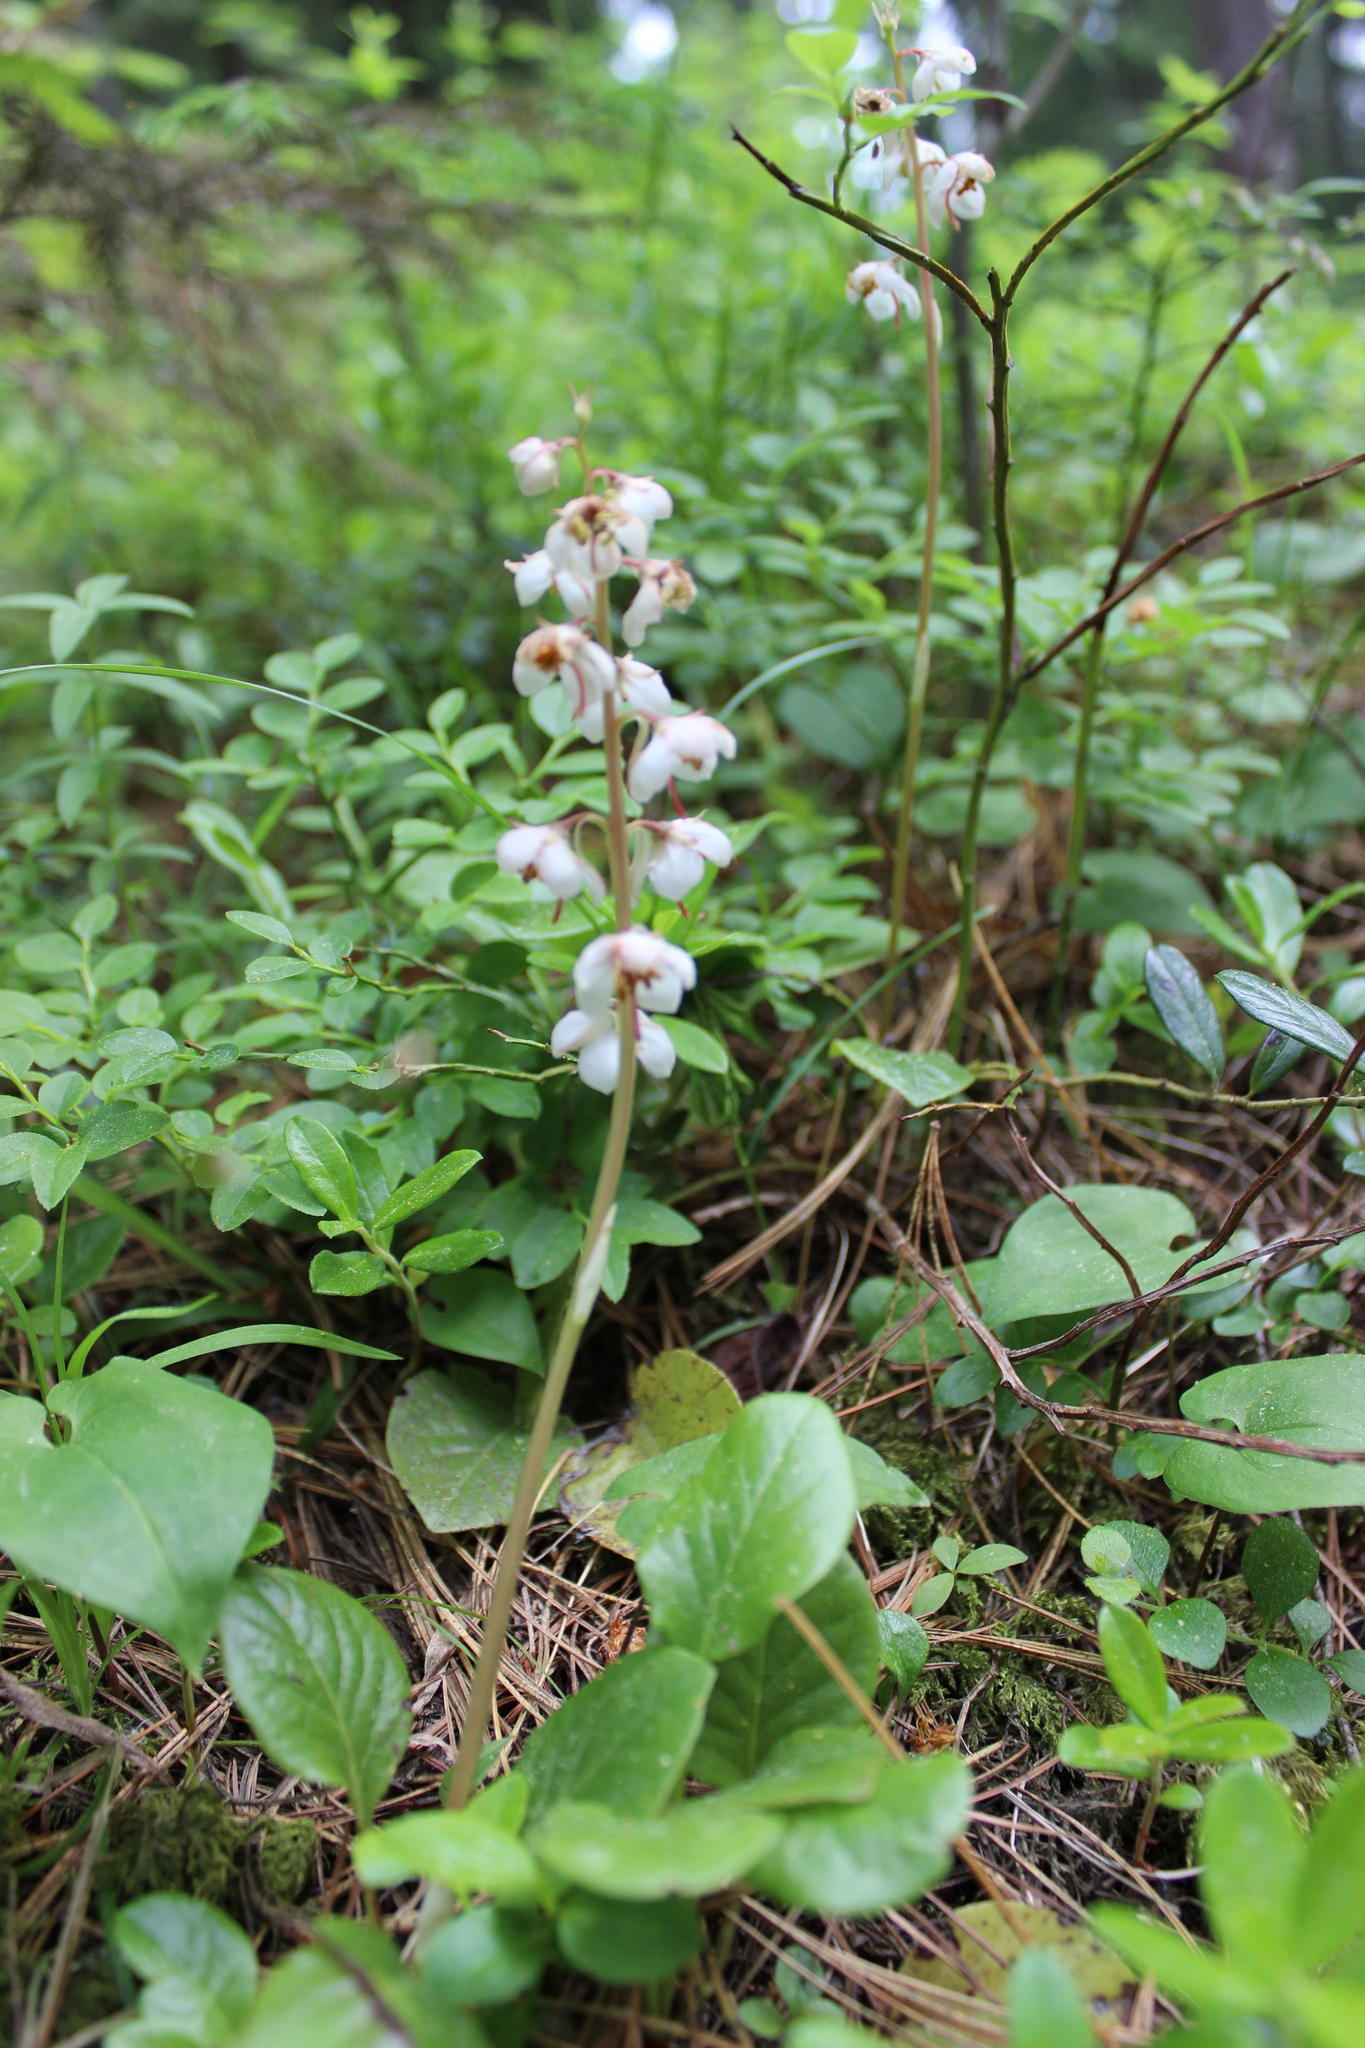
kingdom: Plantae
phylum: Tracheophyta
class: Magnoliopsida
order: Ericales
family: Ericaceae
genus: Pyrola
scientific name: Pyrola rotundifolia
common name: Round-leaved wintergreen
